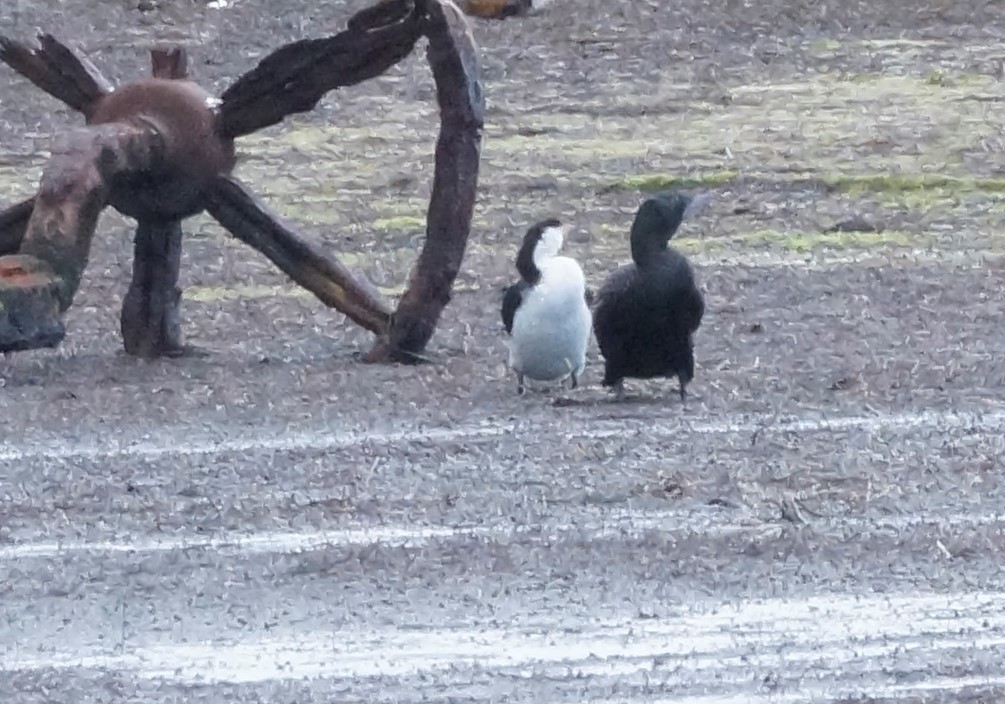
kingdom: Animalia
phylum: Chordata
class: Aves
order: Suliformes
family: Phalacrocoracidae
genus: Microcarbo
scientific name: Microcarbo melanoleucos
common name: Little pied cormorant
